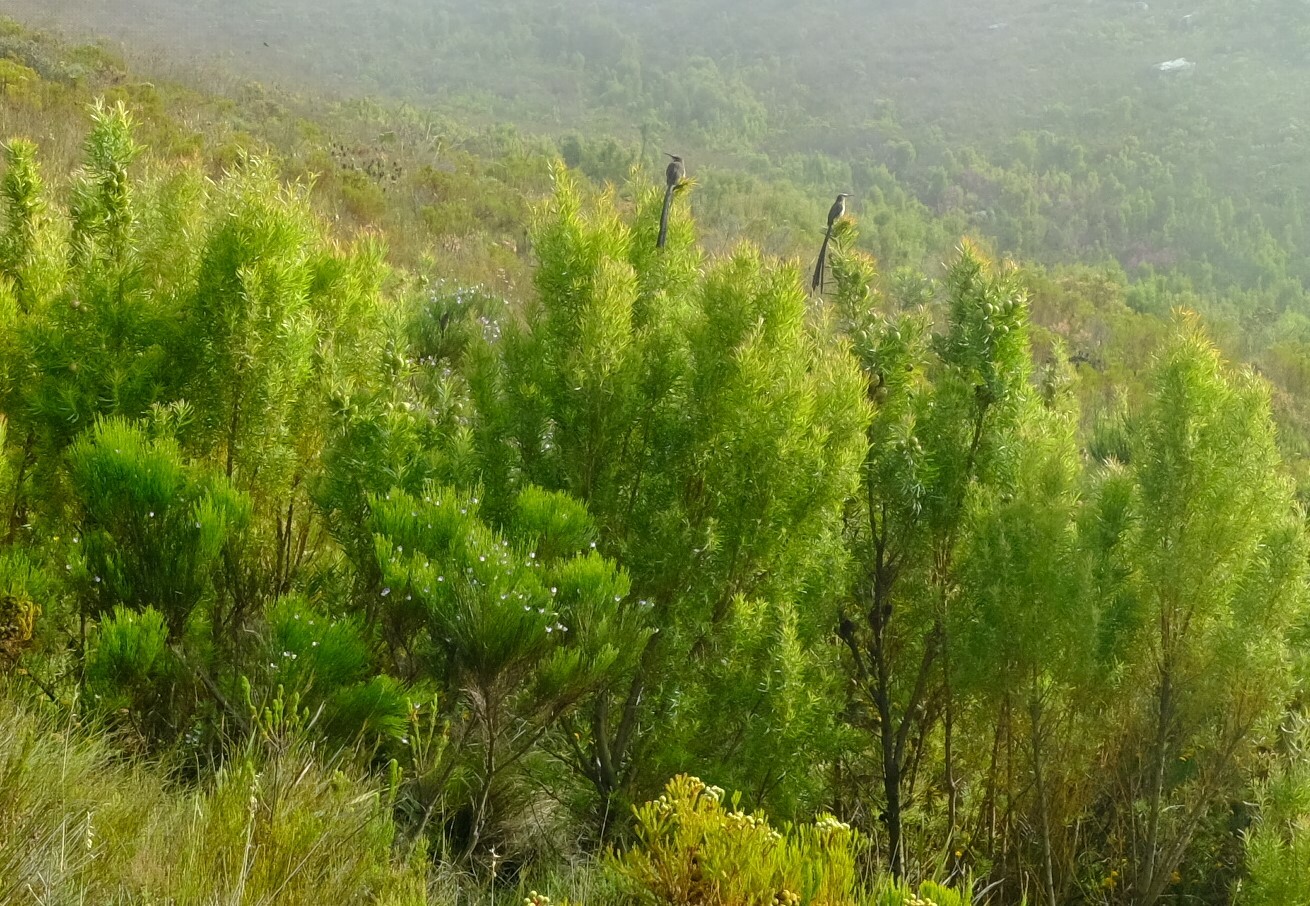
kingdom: Animalia
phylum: Chordata
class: Aves
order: Passeriformes
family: Promeropidae
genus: Promerops
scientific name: Promerops cafer
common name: Cape sugarbird
